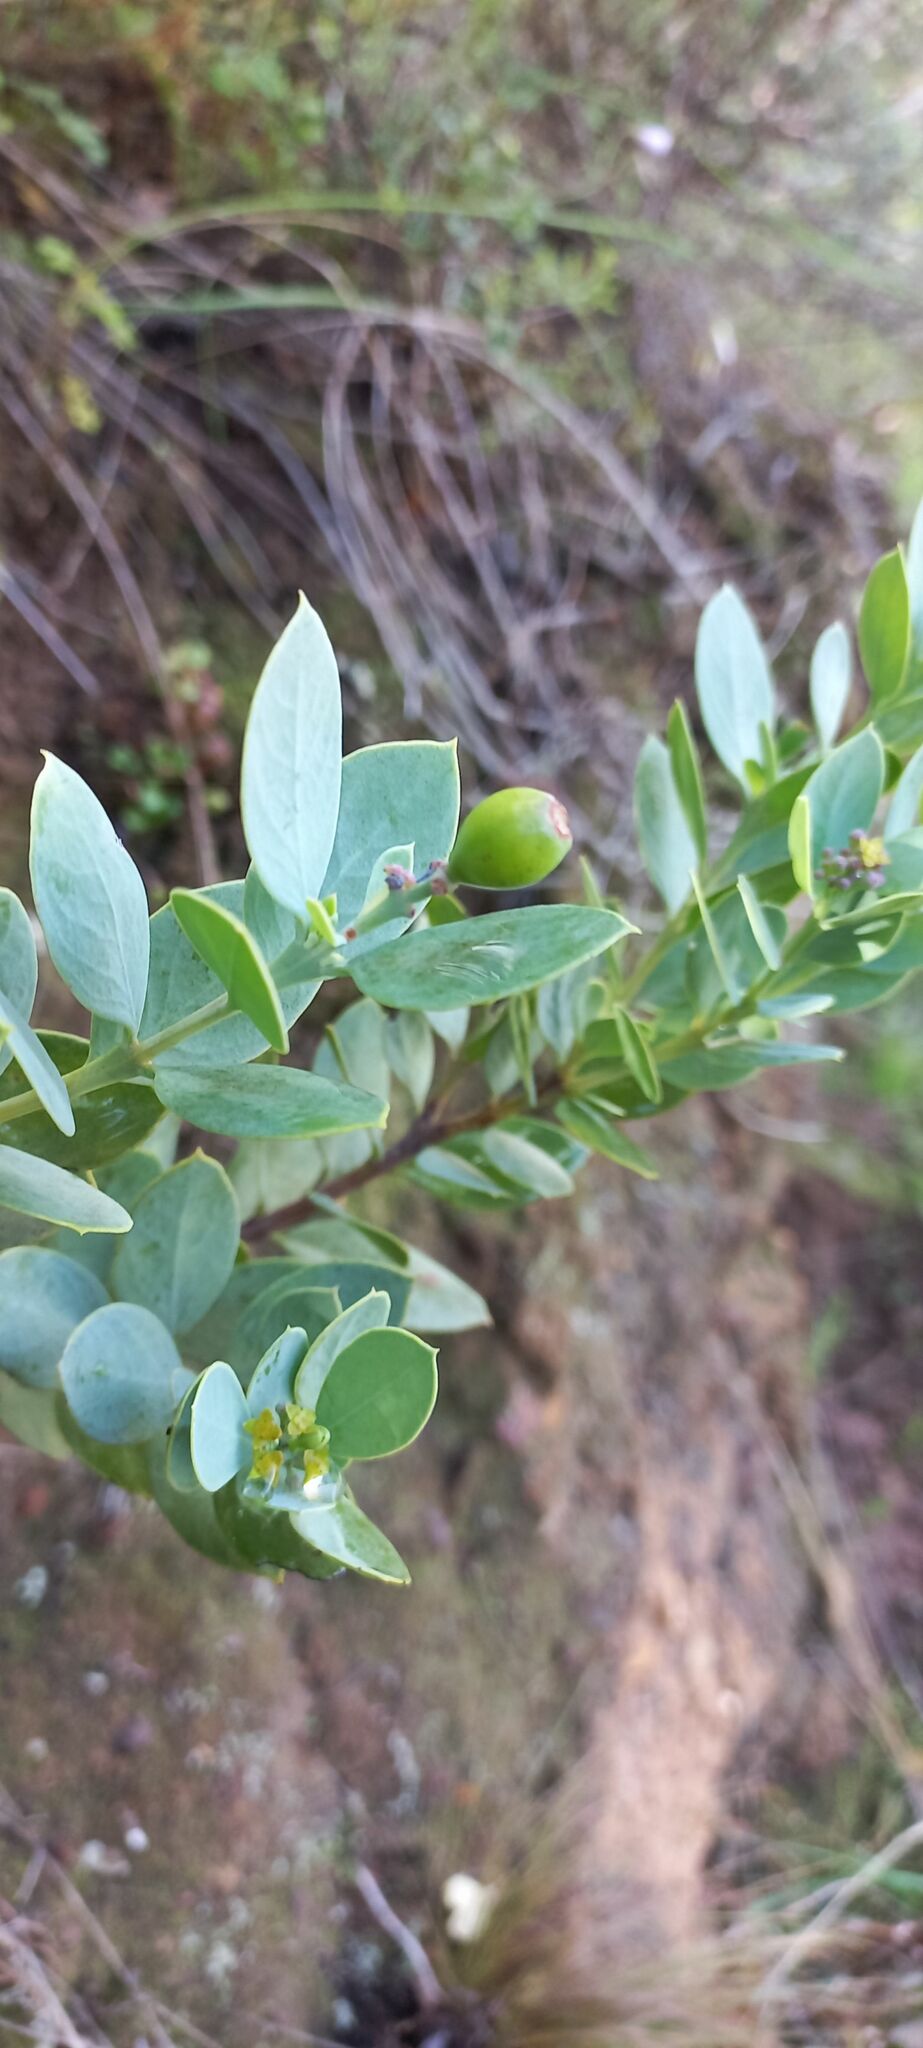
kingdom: Plantae
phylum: Tracheophyta
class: Magnoliopsida
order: Santalales
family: Santalaceae
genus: Osyris
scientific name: Osyris compressa
